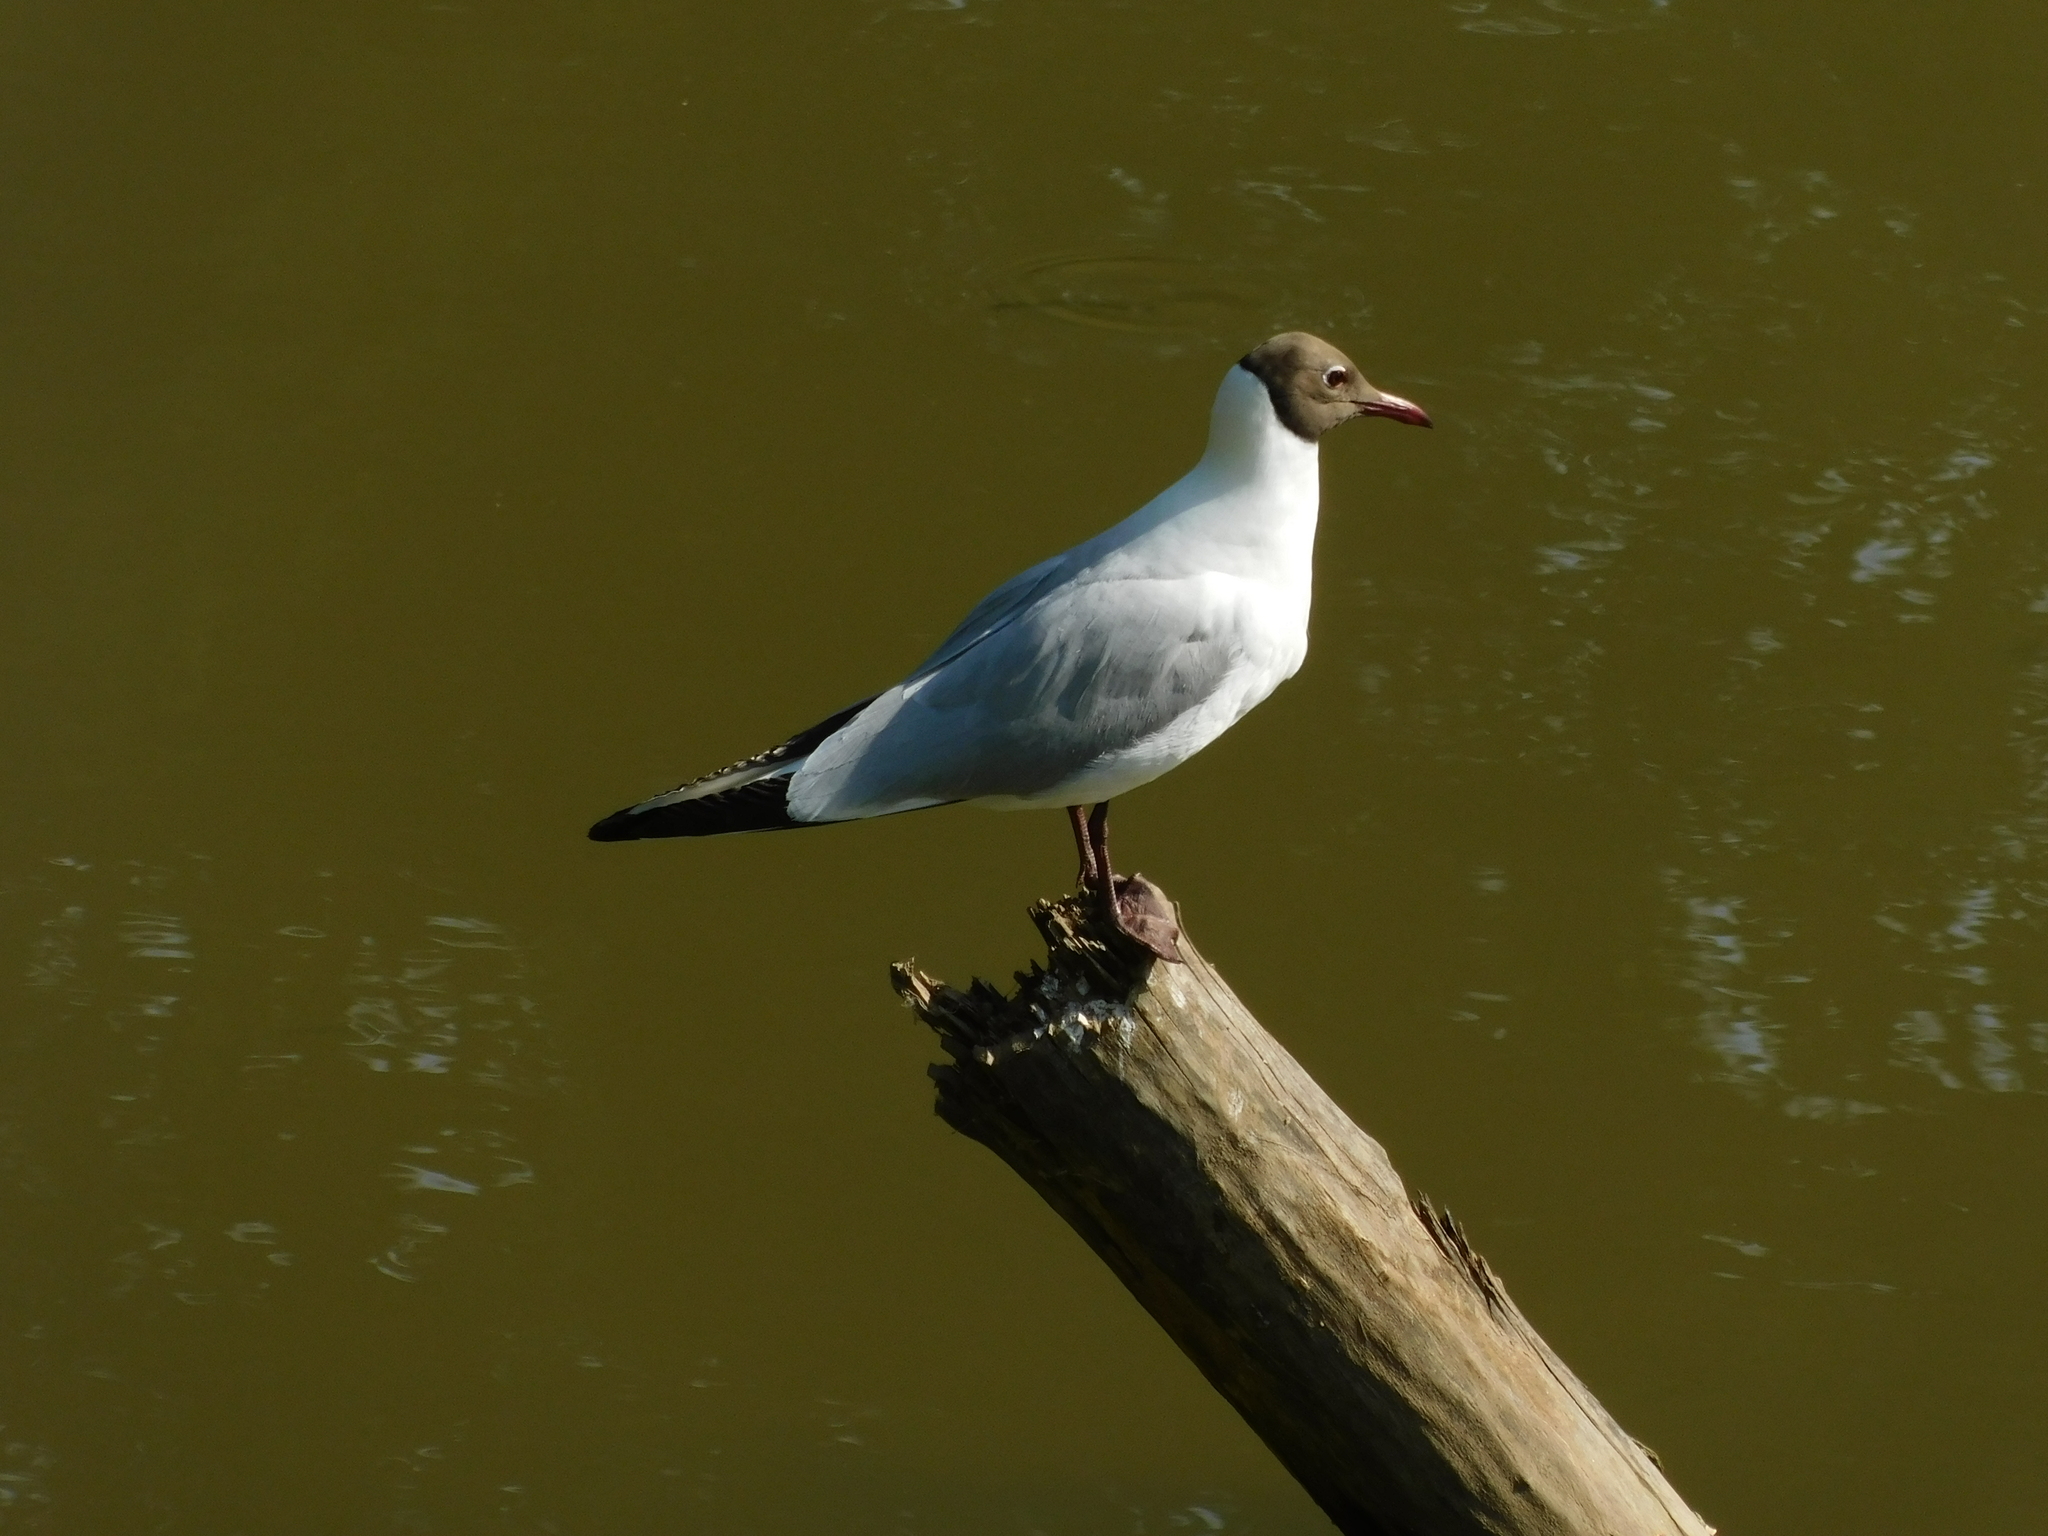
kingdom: Animalia
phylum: Chordata
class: Aves
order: Charadriiformes
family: Laridae
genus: Chroicocephalus
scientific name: Chroicocephalus ridibundus
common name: Black-headed gull
